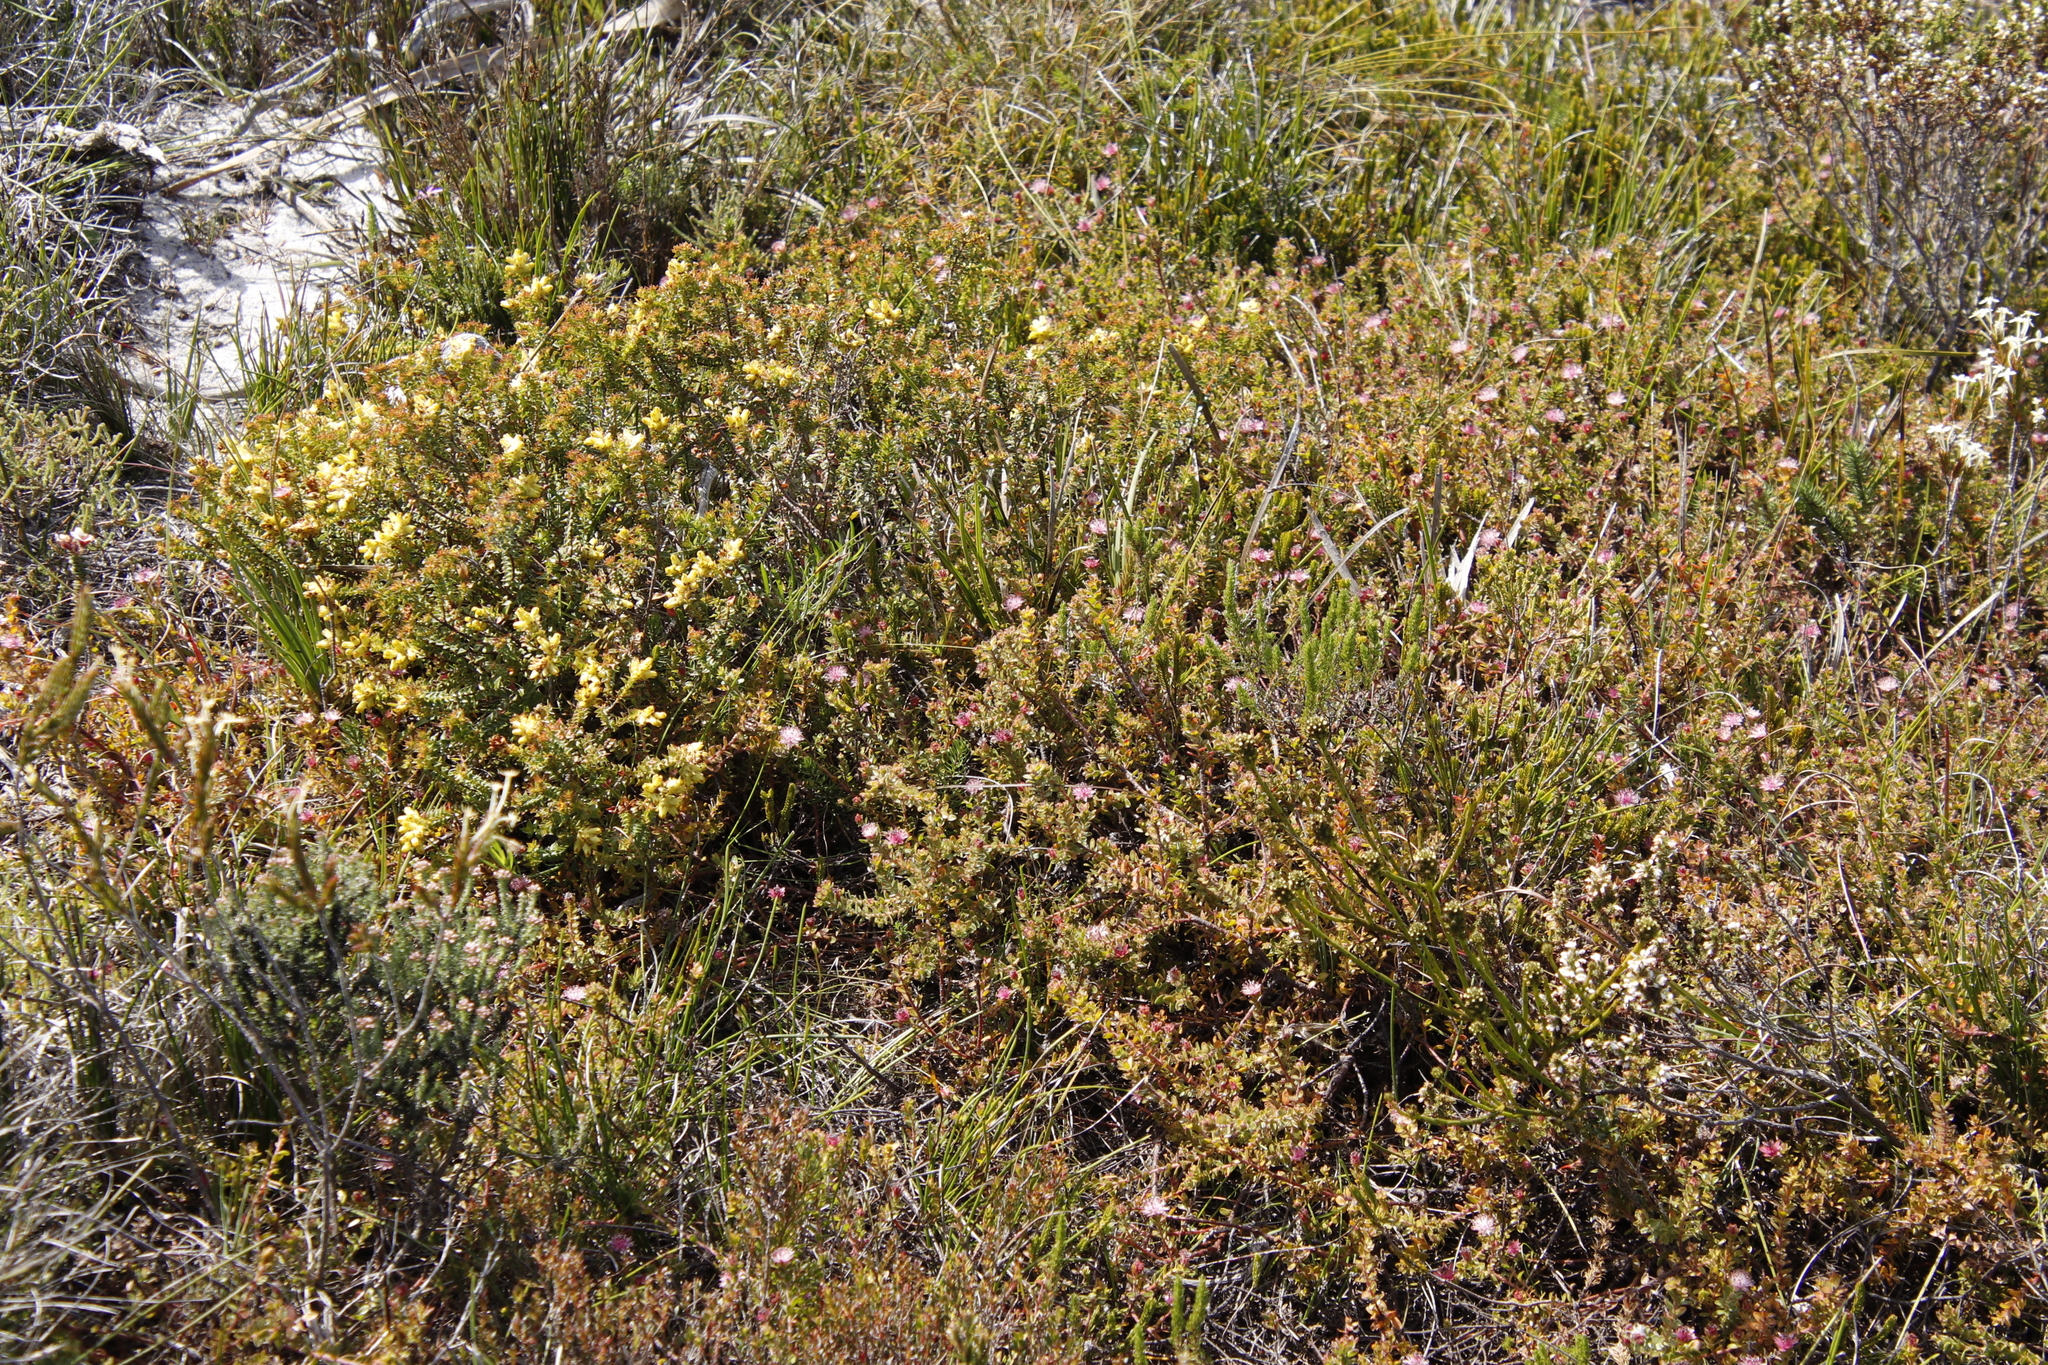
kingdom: Plantae
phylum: Tracheophyta
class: Magnoliopsida
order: Proteales
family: Proteaceae
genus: Diastella
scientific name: Diastella divaricata
